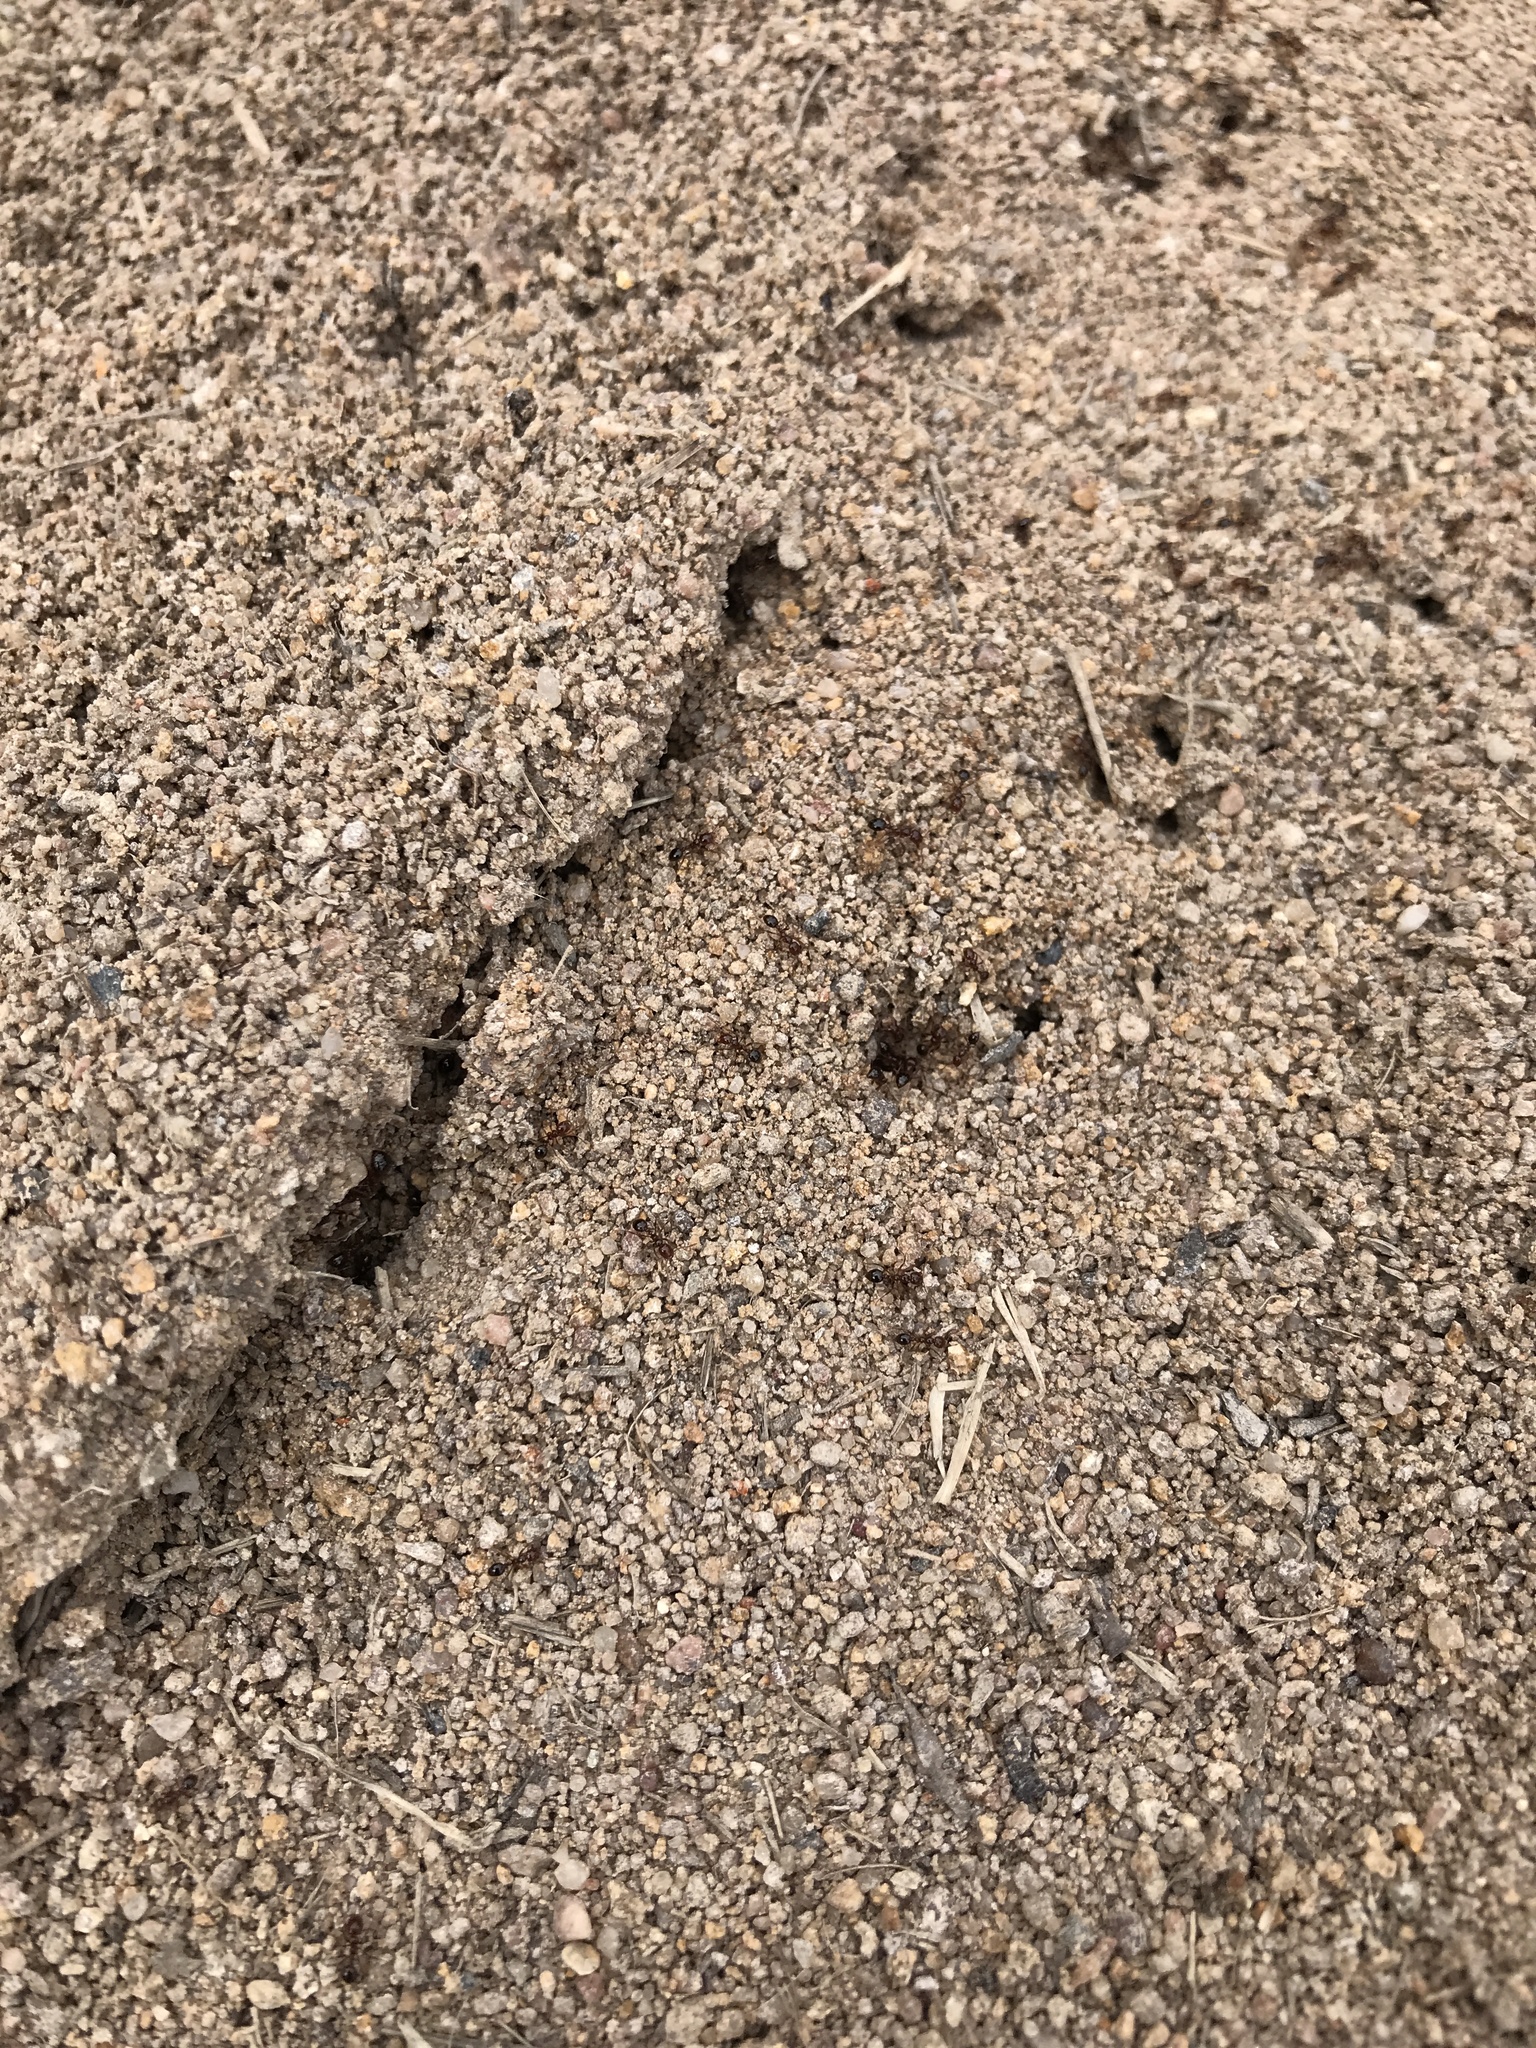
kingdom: Animalia
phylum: Arthropoda
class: Insecta
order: Hymenoptera
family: Formicidae
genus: Solenopsis
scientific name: Solenopsis invicta
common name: Red imported fire ant
